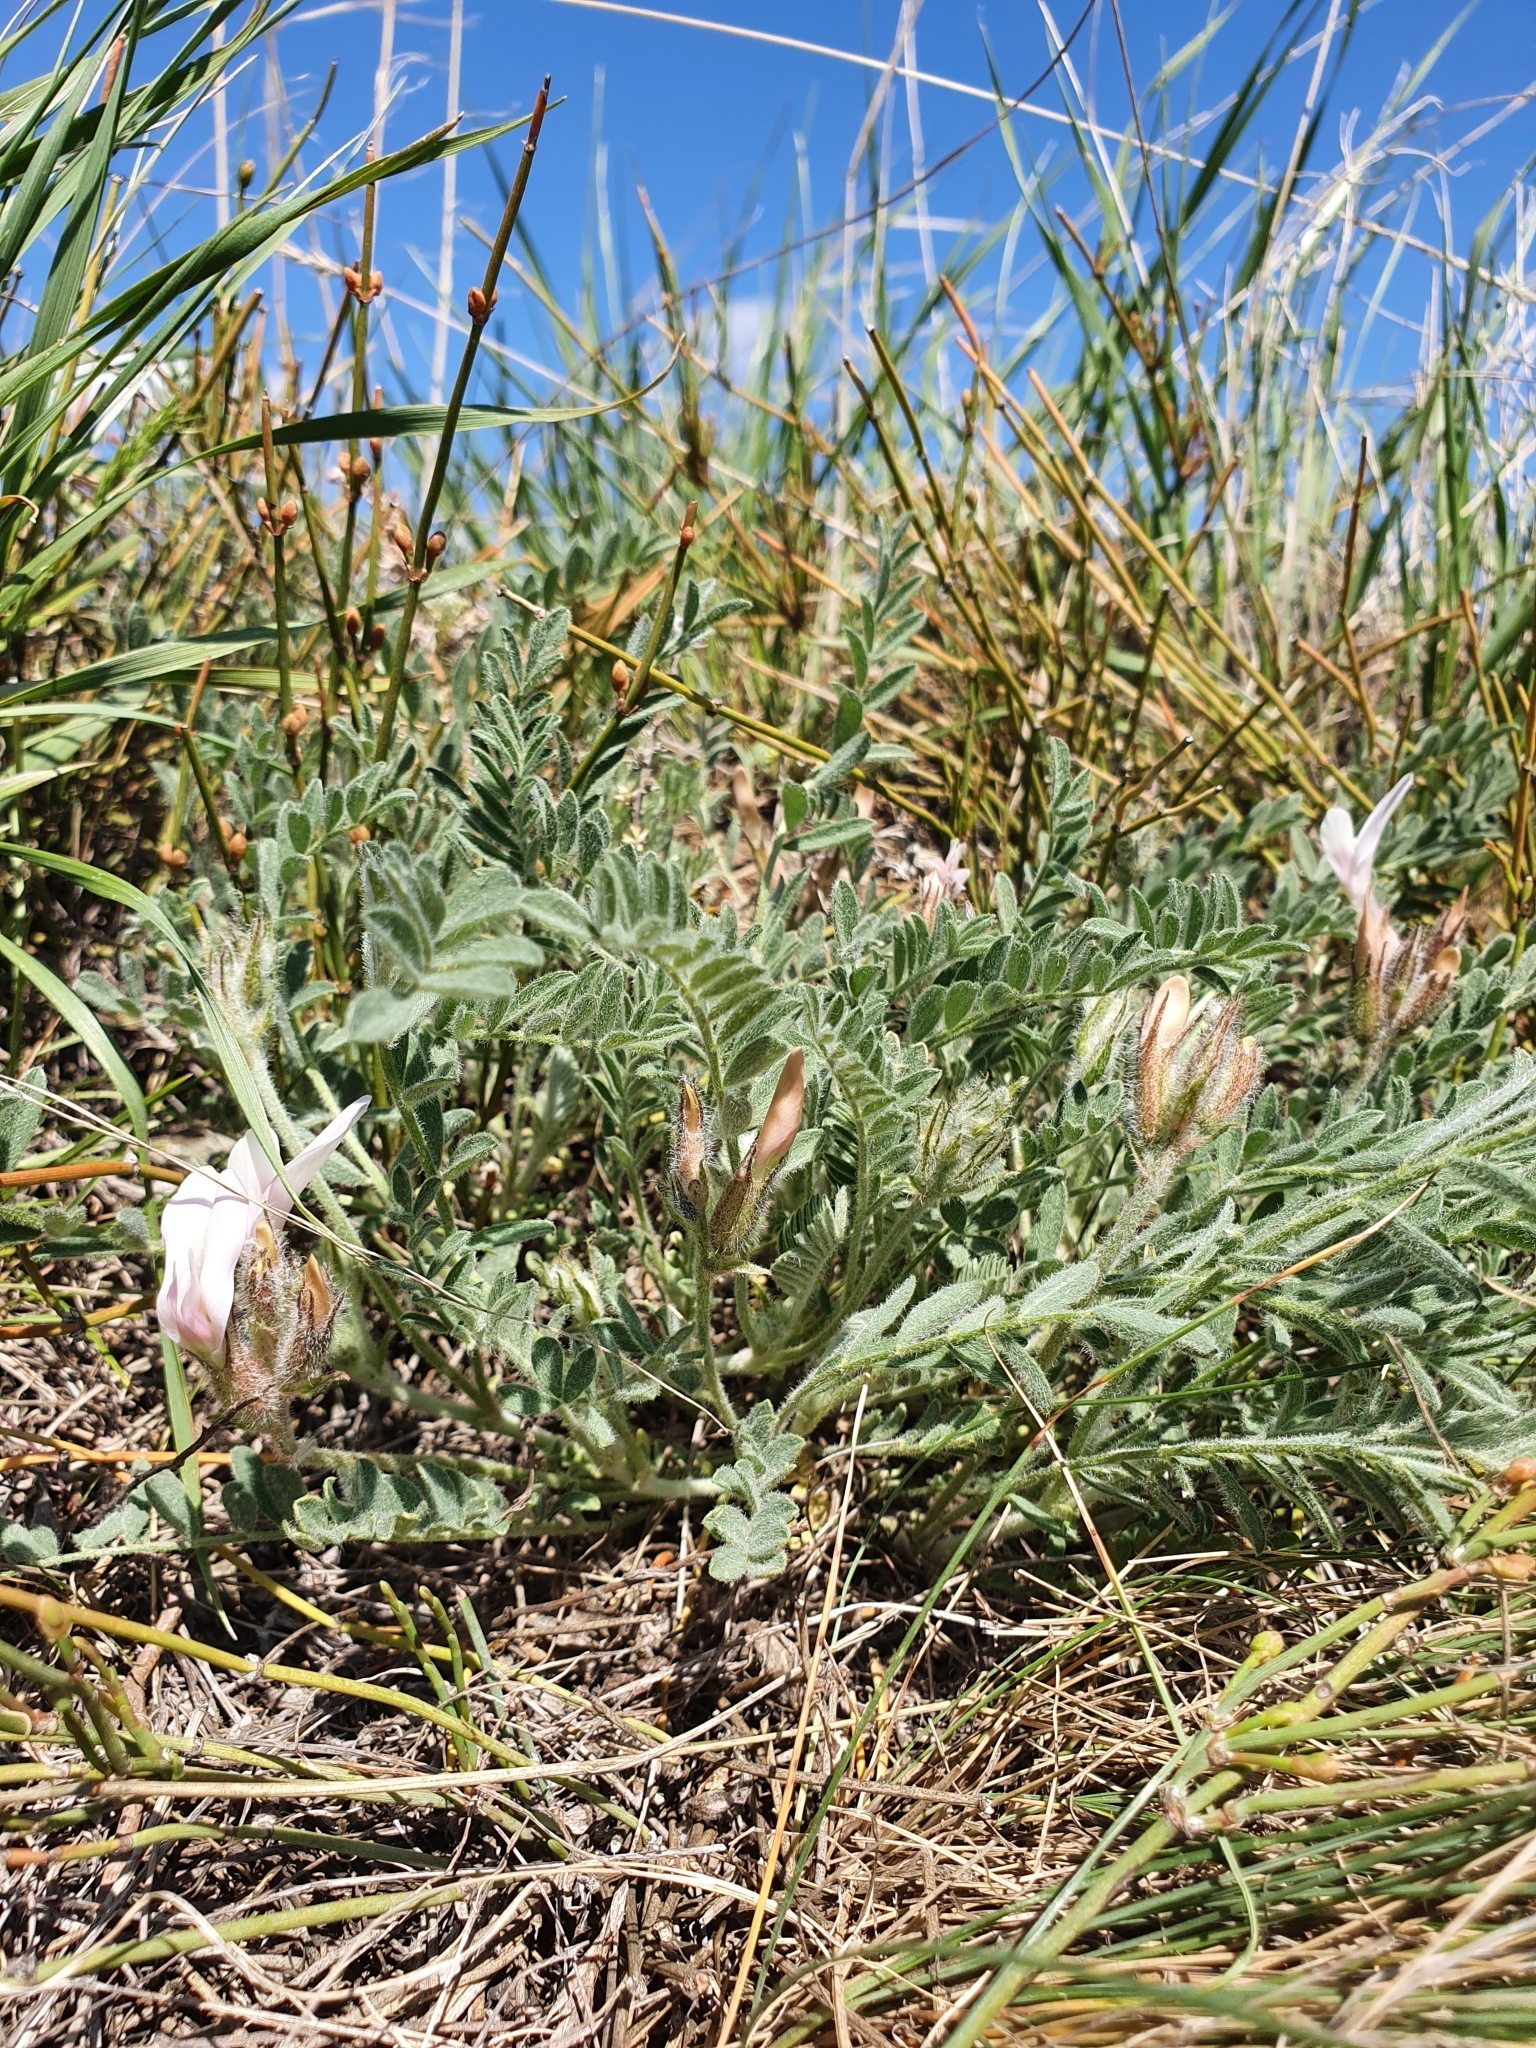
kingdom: Plantae
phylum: Tracheophyta
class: Magnoliopsida
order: Fabales
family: Fabaceae
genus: Astragalus
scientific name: Astragalus rupifragus
